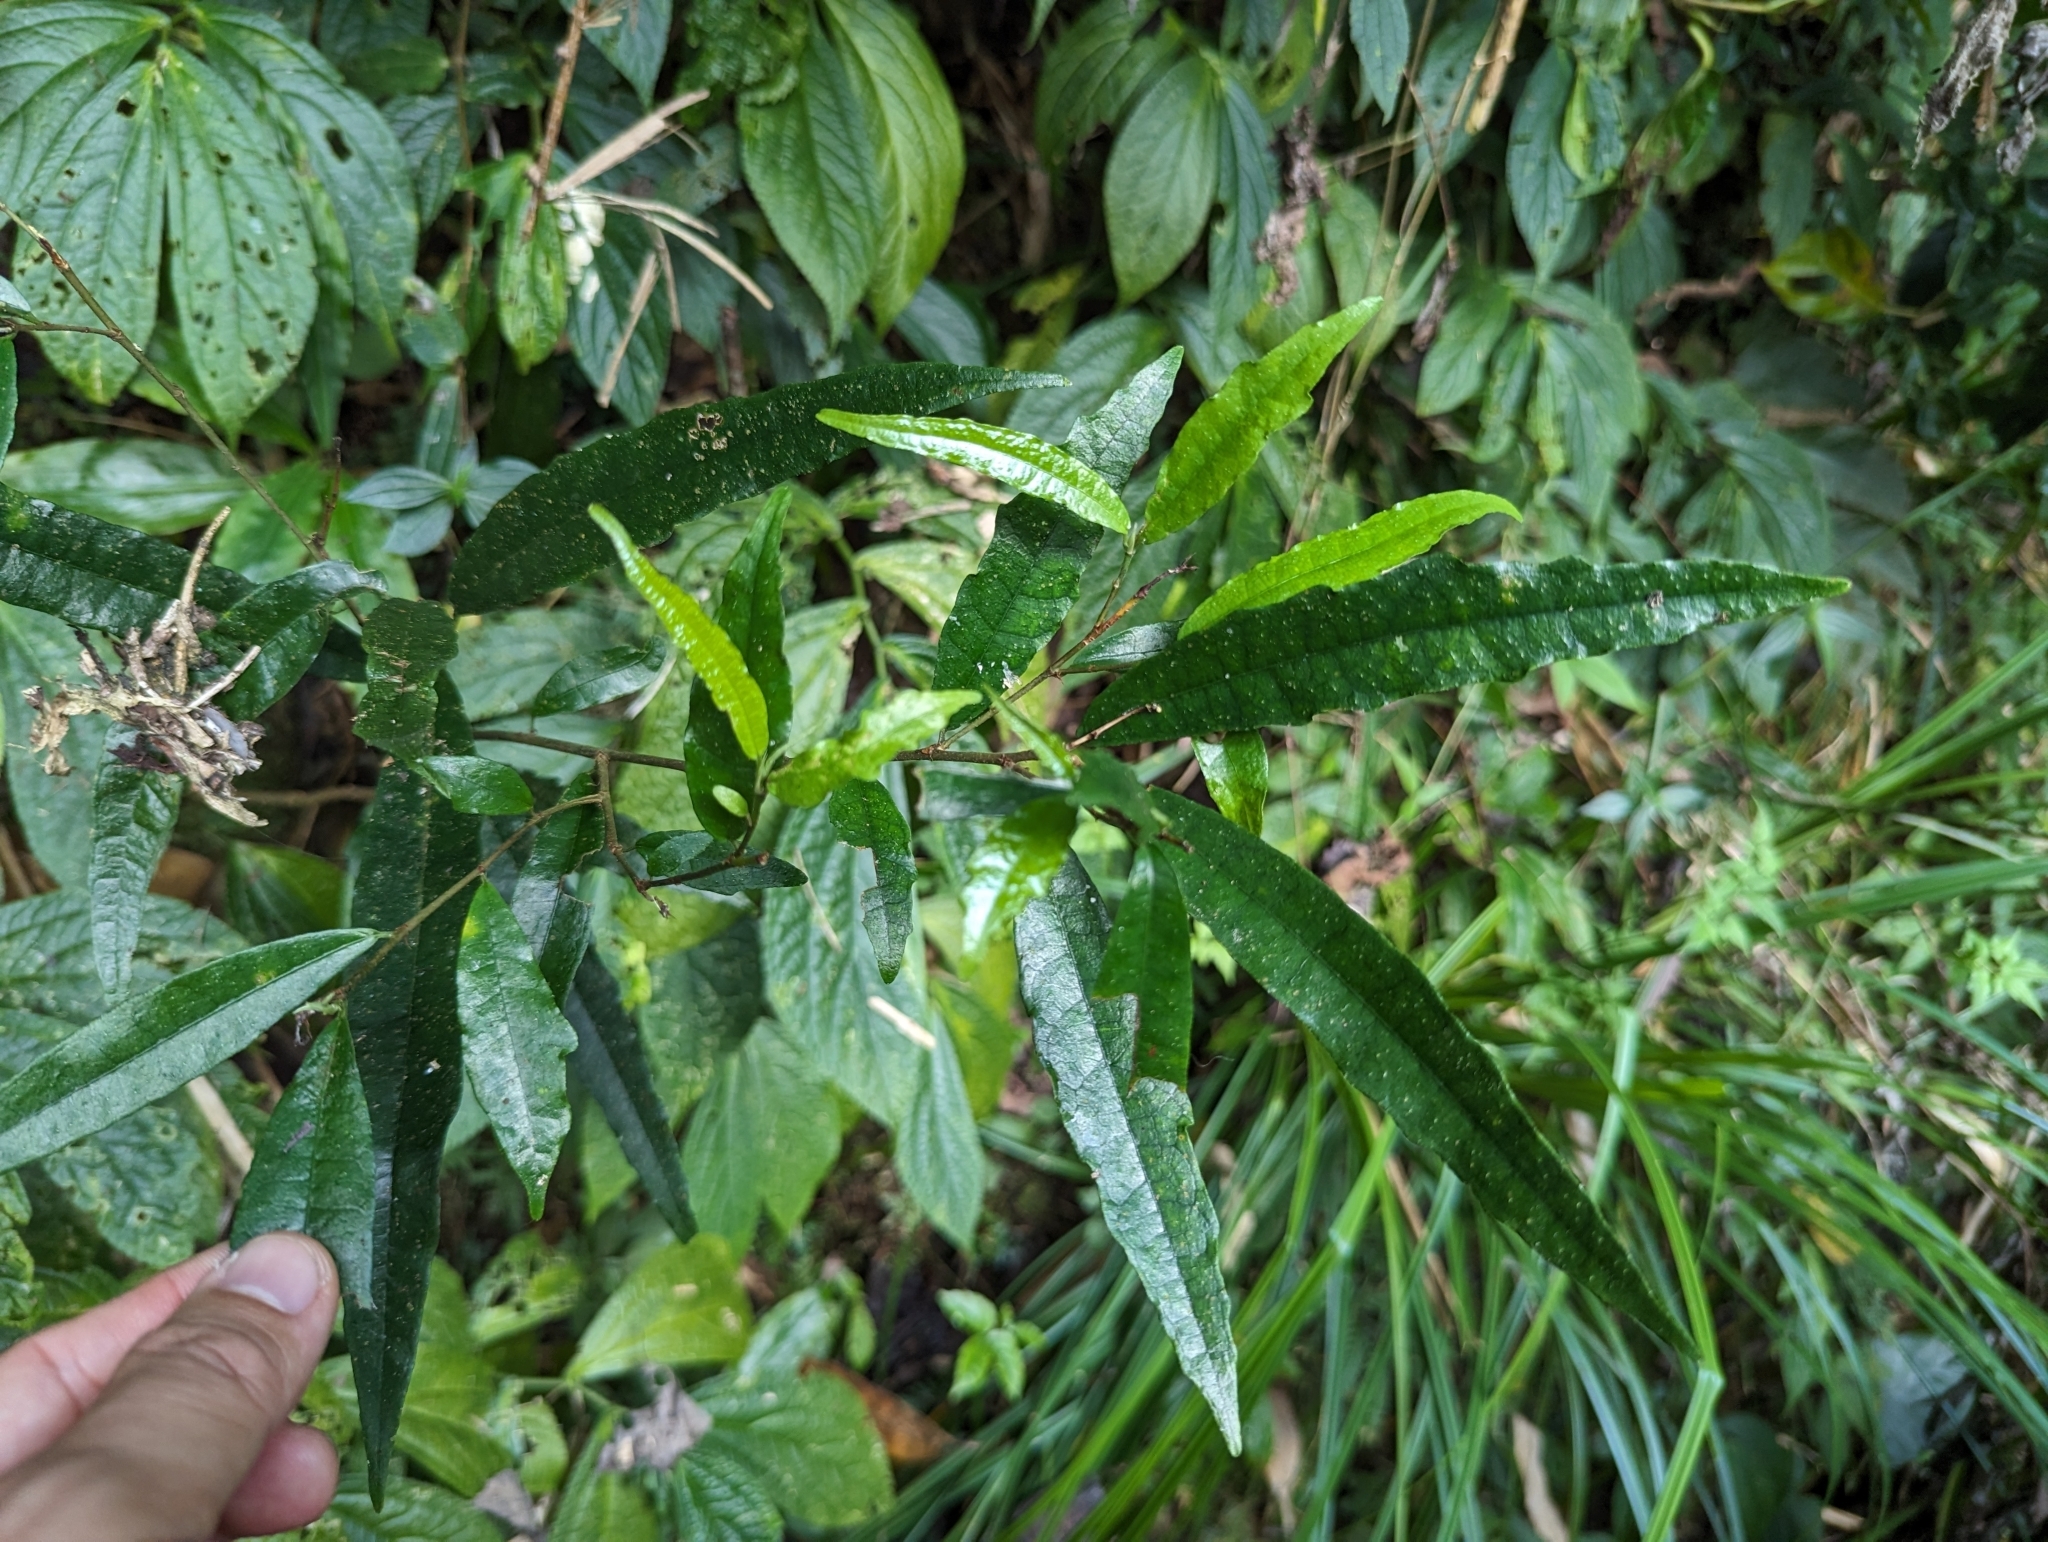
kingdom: Plantae
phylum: Tracheophyta
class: Magnoliopsida
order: Rosales
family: Moraceae
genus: Ficus
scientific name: Ficus formosana
